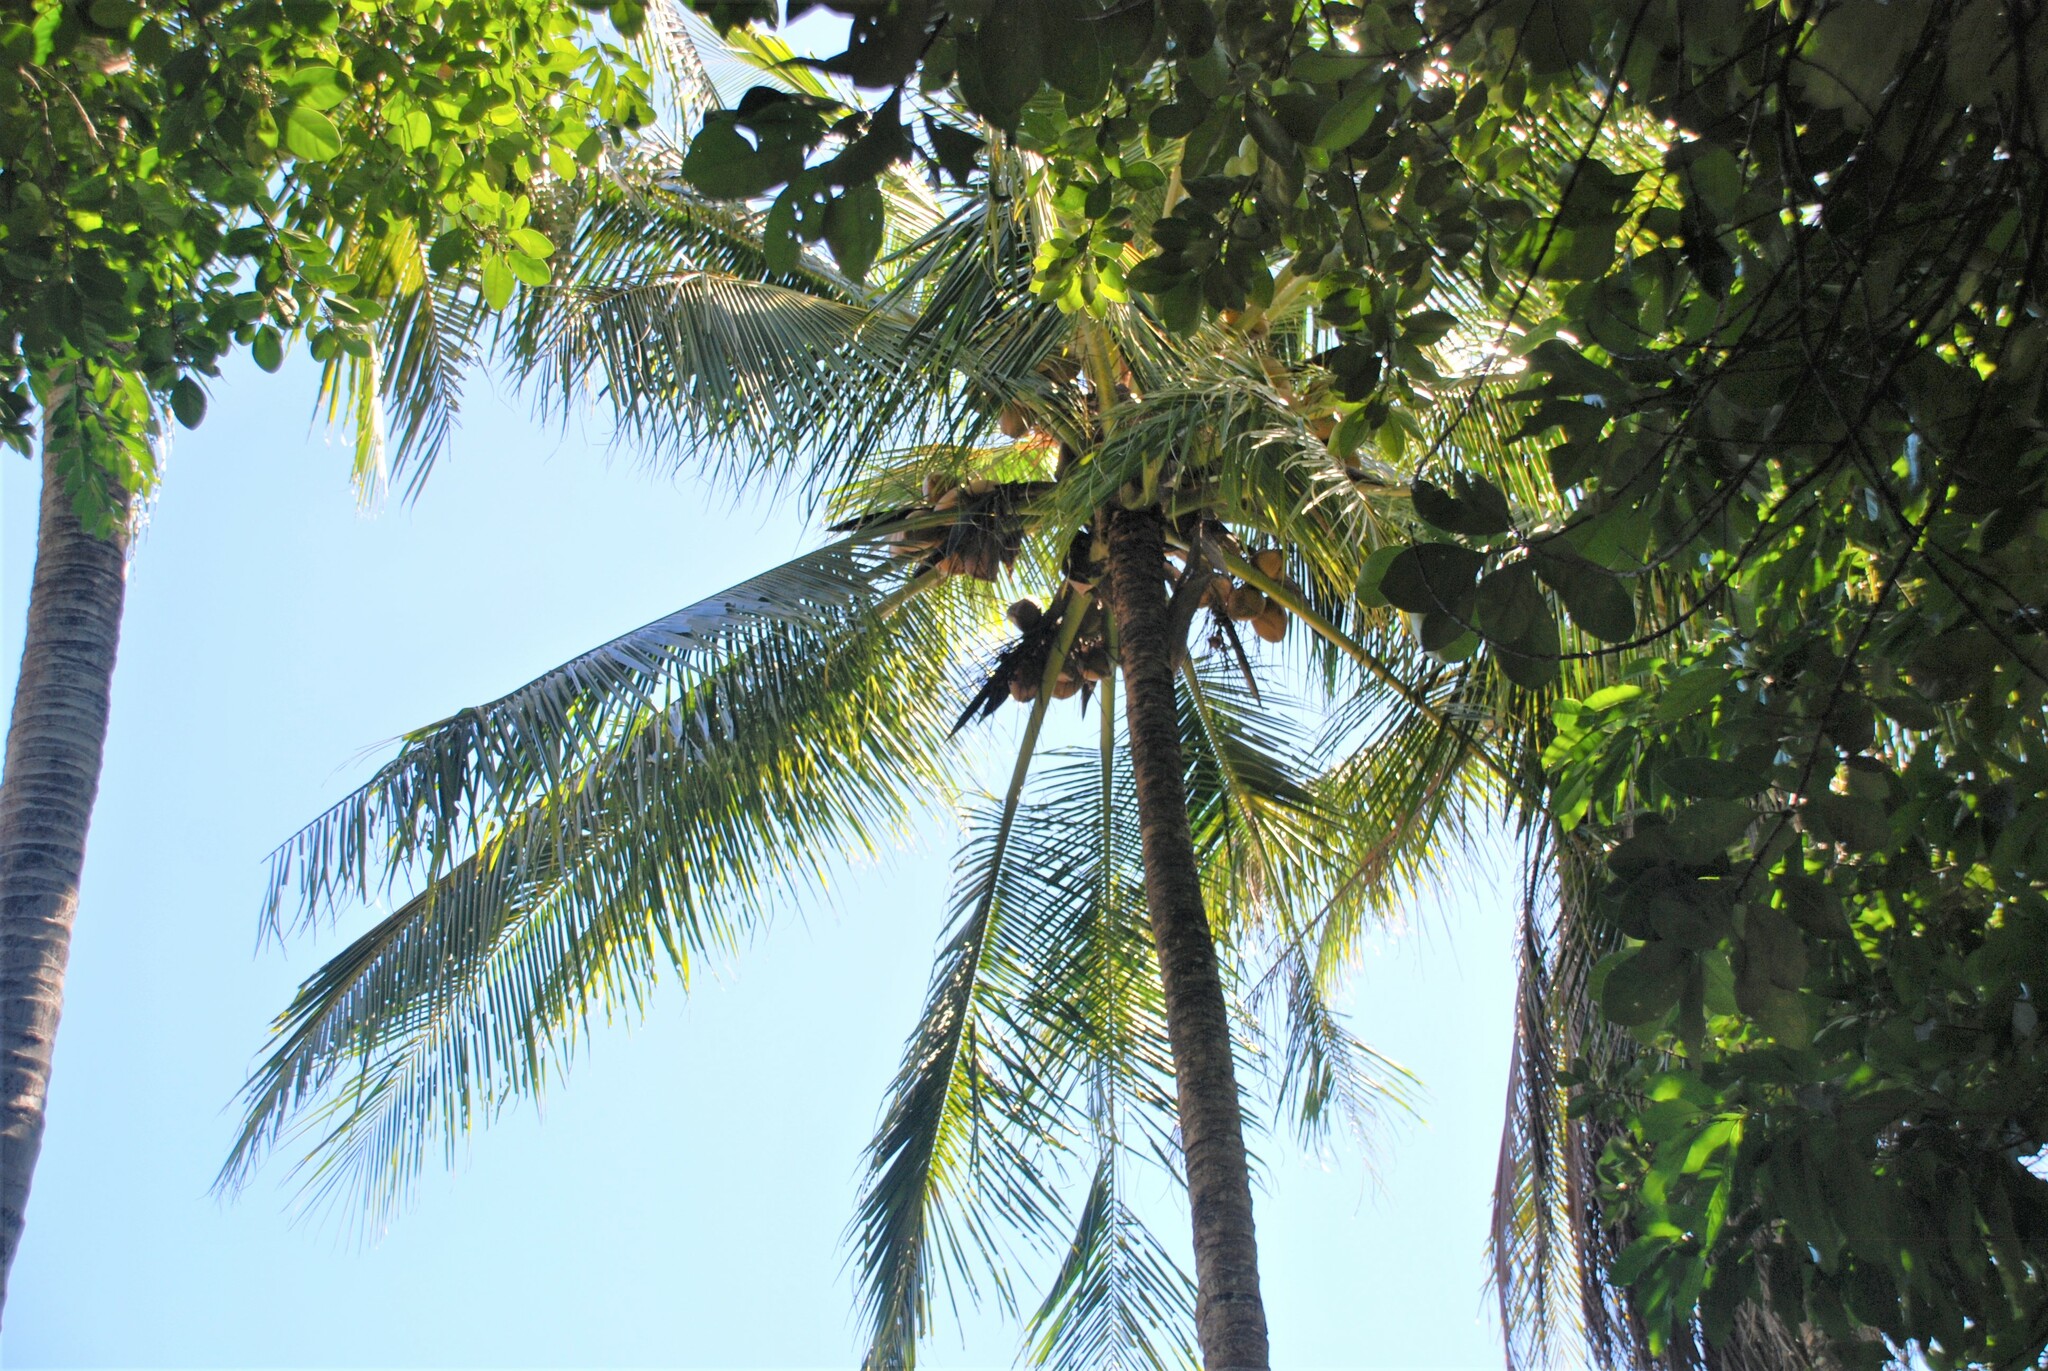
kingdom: Plantae
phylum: Tracheophyta
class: Liliopsida
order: Arecales
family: Arecaceae
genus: Cocos
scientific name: Cocos nucifera
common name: Coconut palm
